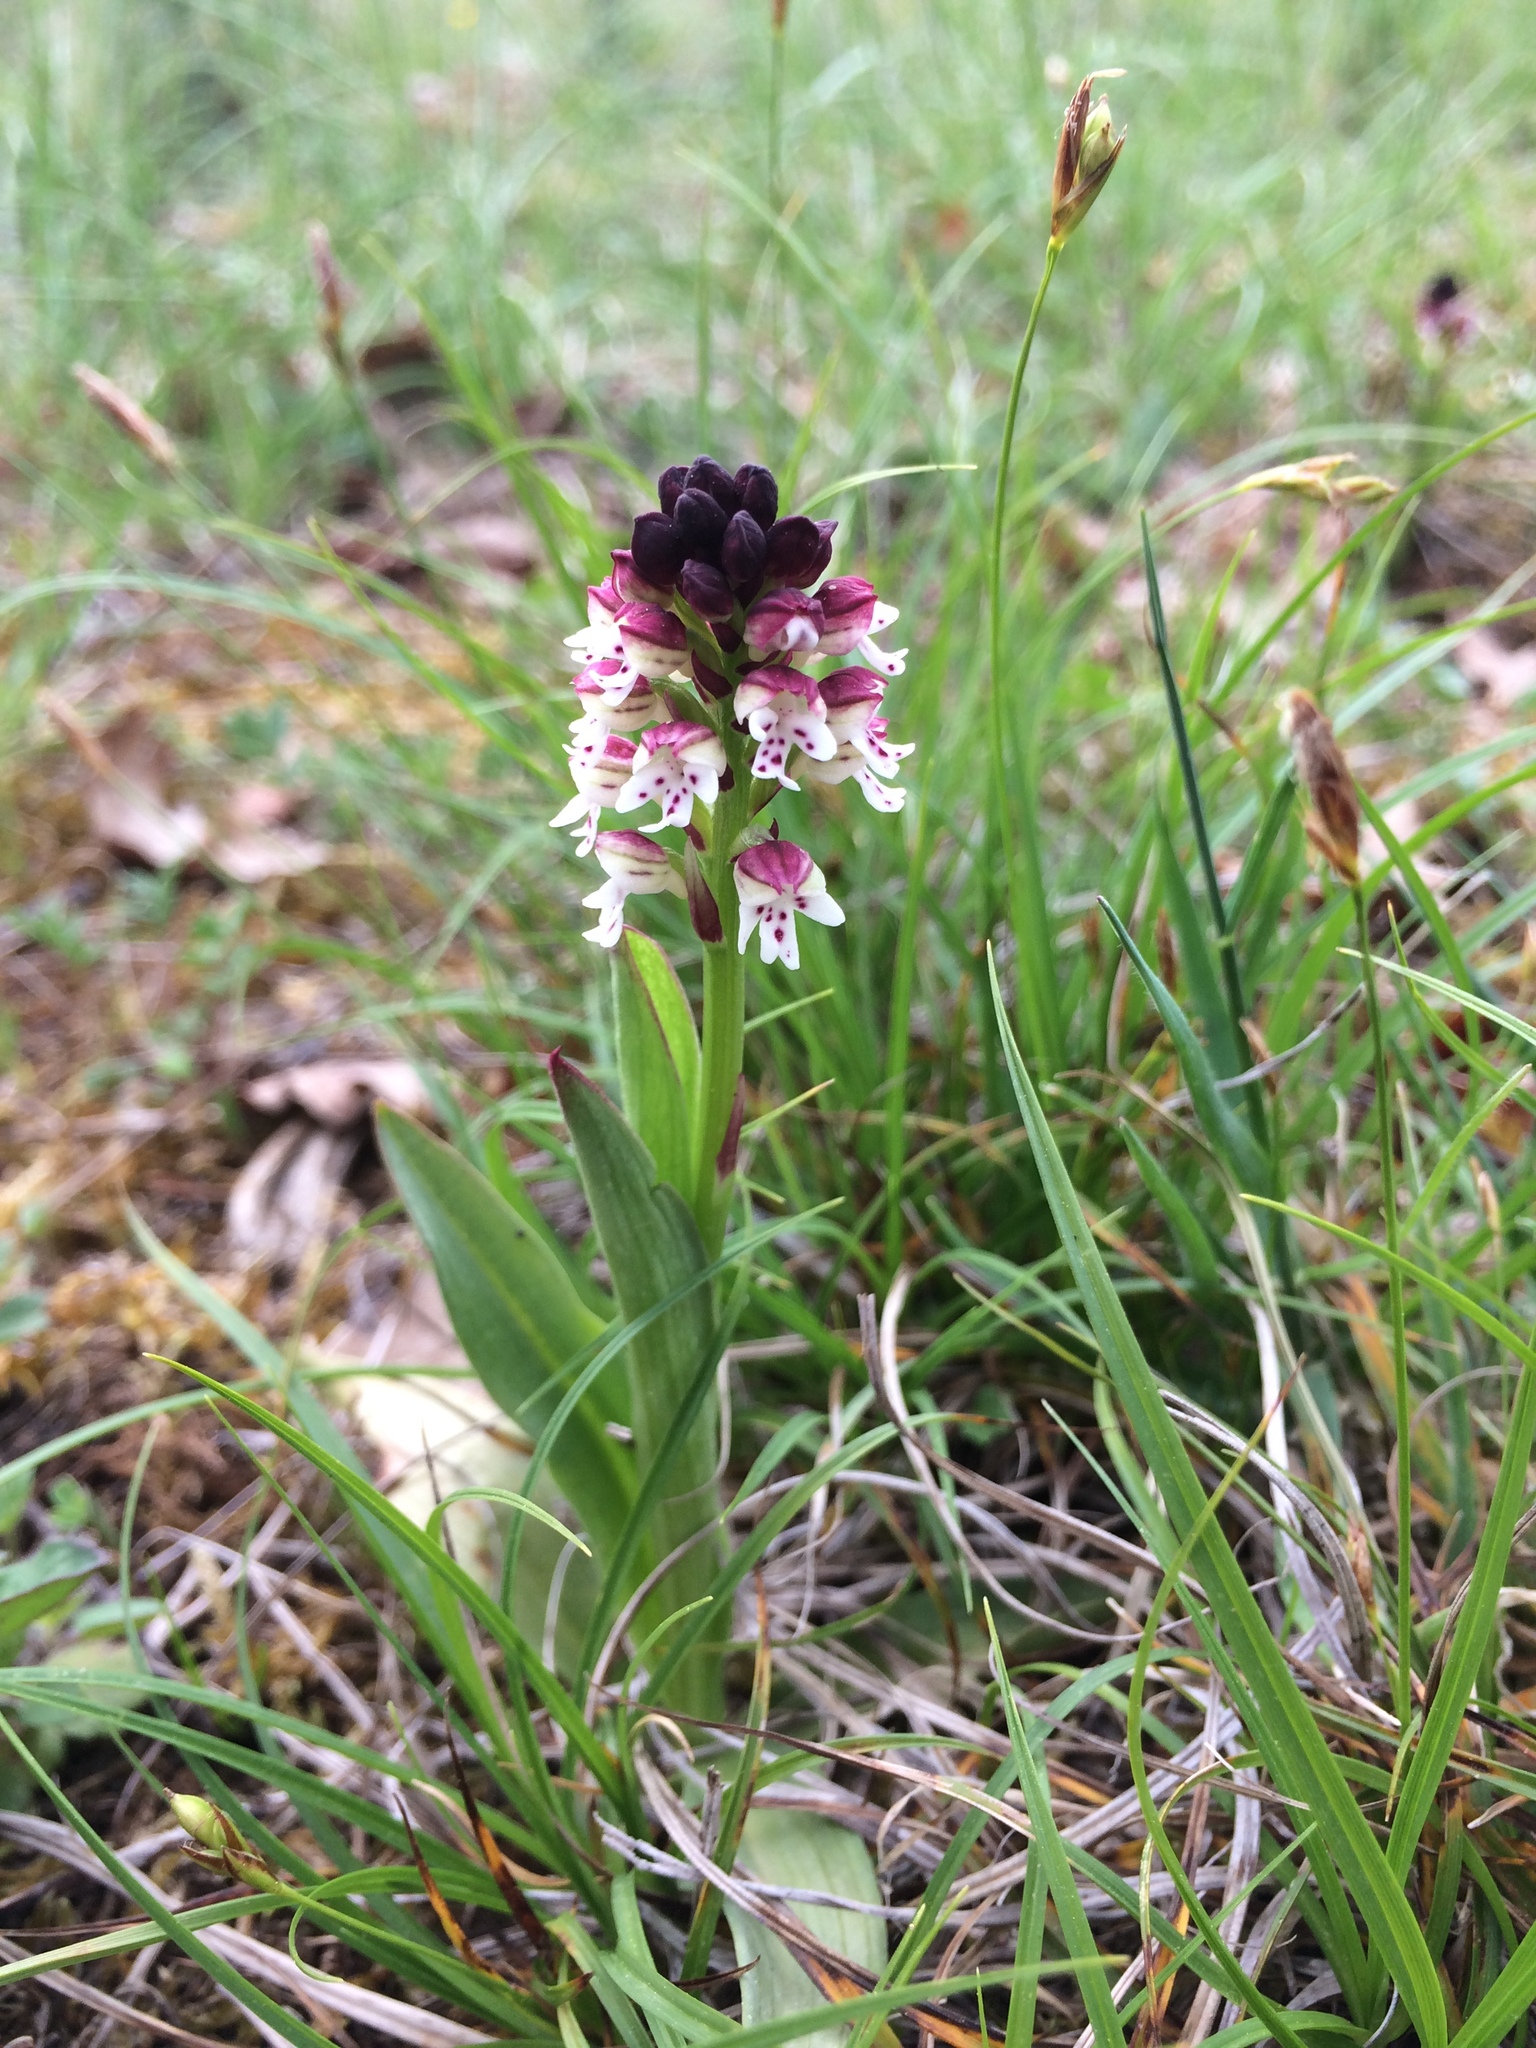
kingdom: Plantae
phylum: Tracheophyta
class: Liliopsida
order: Asparagales
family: Orchidaceae
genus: Neotinea
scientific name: Neotinea ustulata
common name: Burnt orchid
